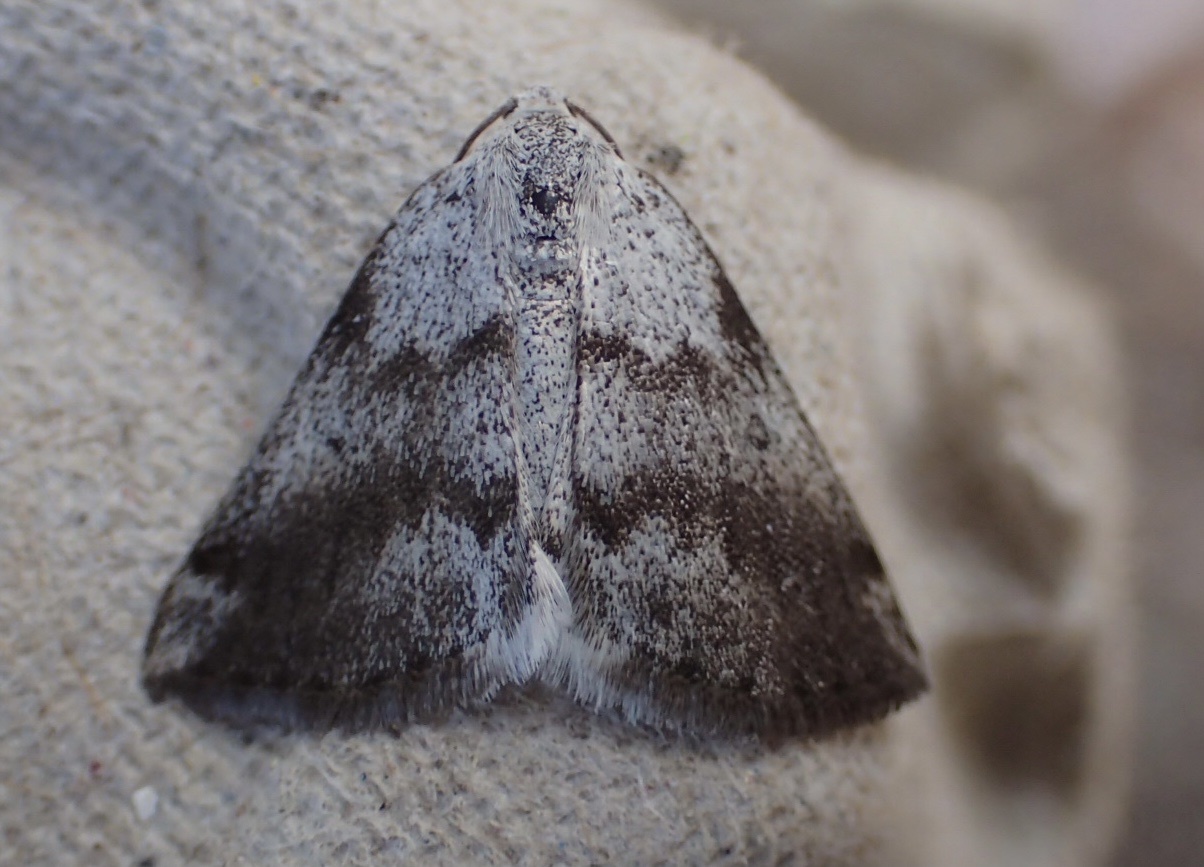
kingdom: Animalia
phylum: Arthropoda
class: Insecta
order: Lepidoptera
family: Geometridae
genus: Lomographa
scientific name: Lomographa semiclarata
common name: Bluish spring moth
